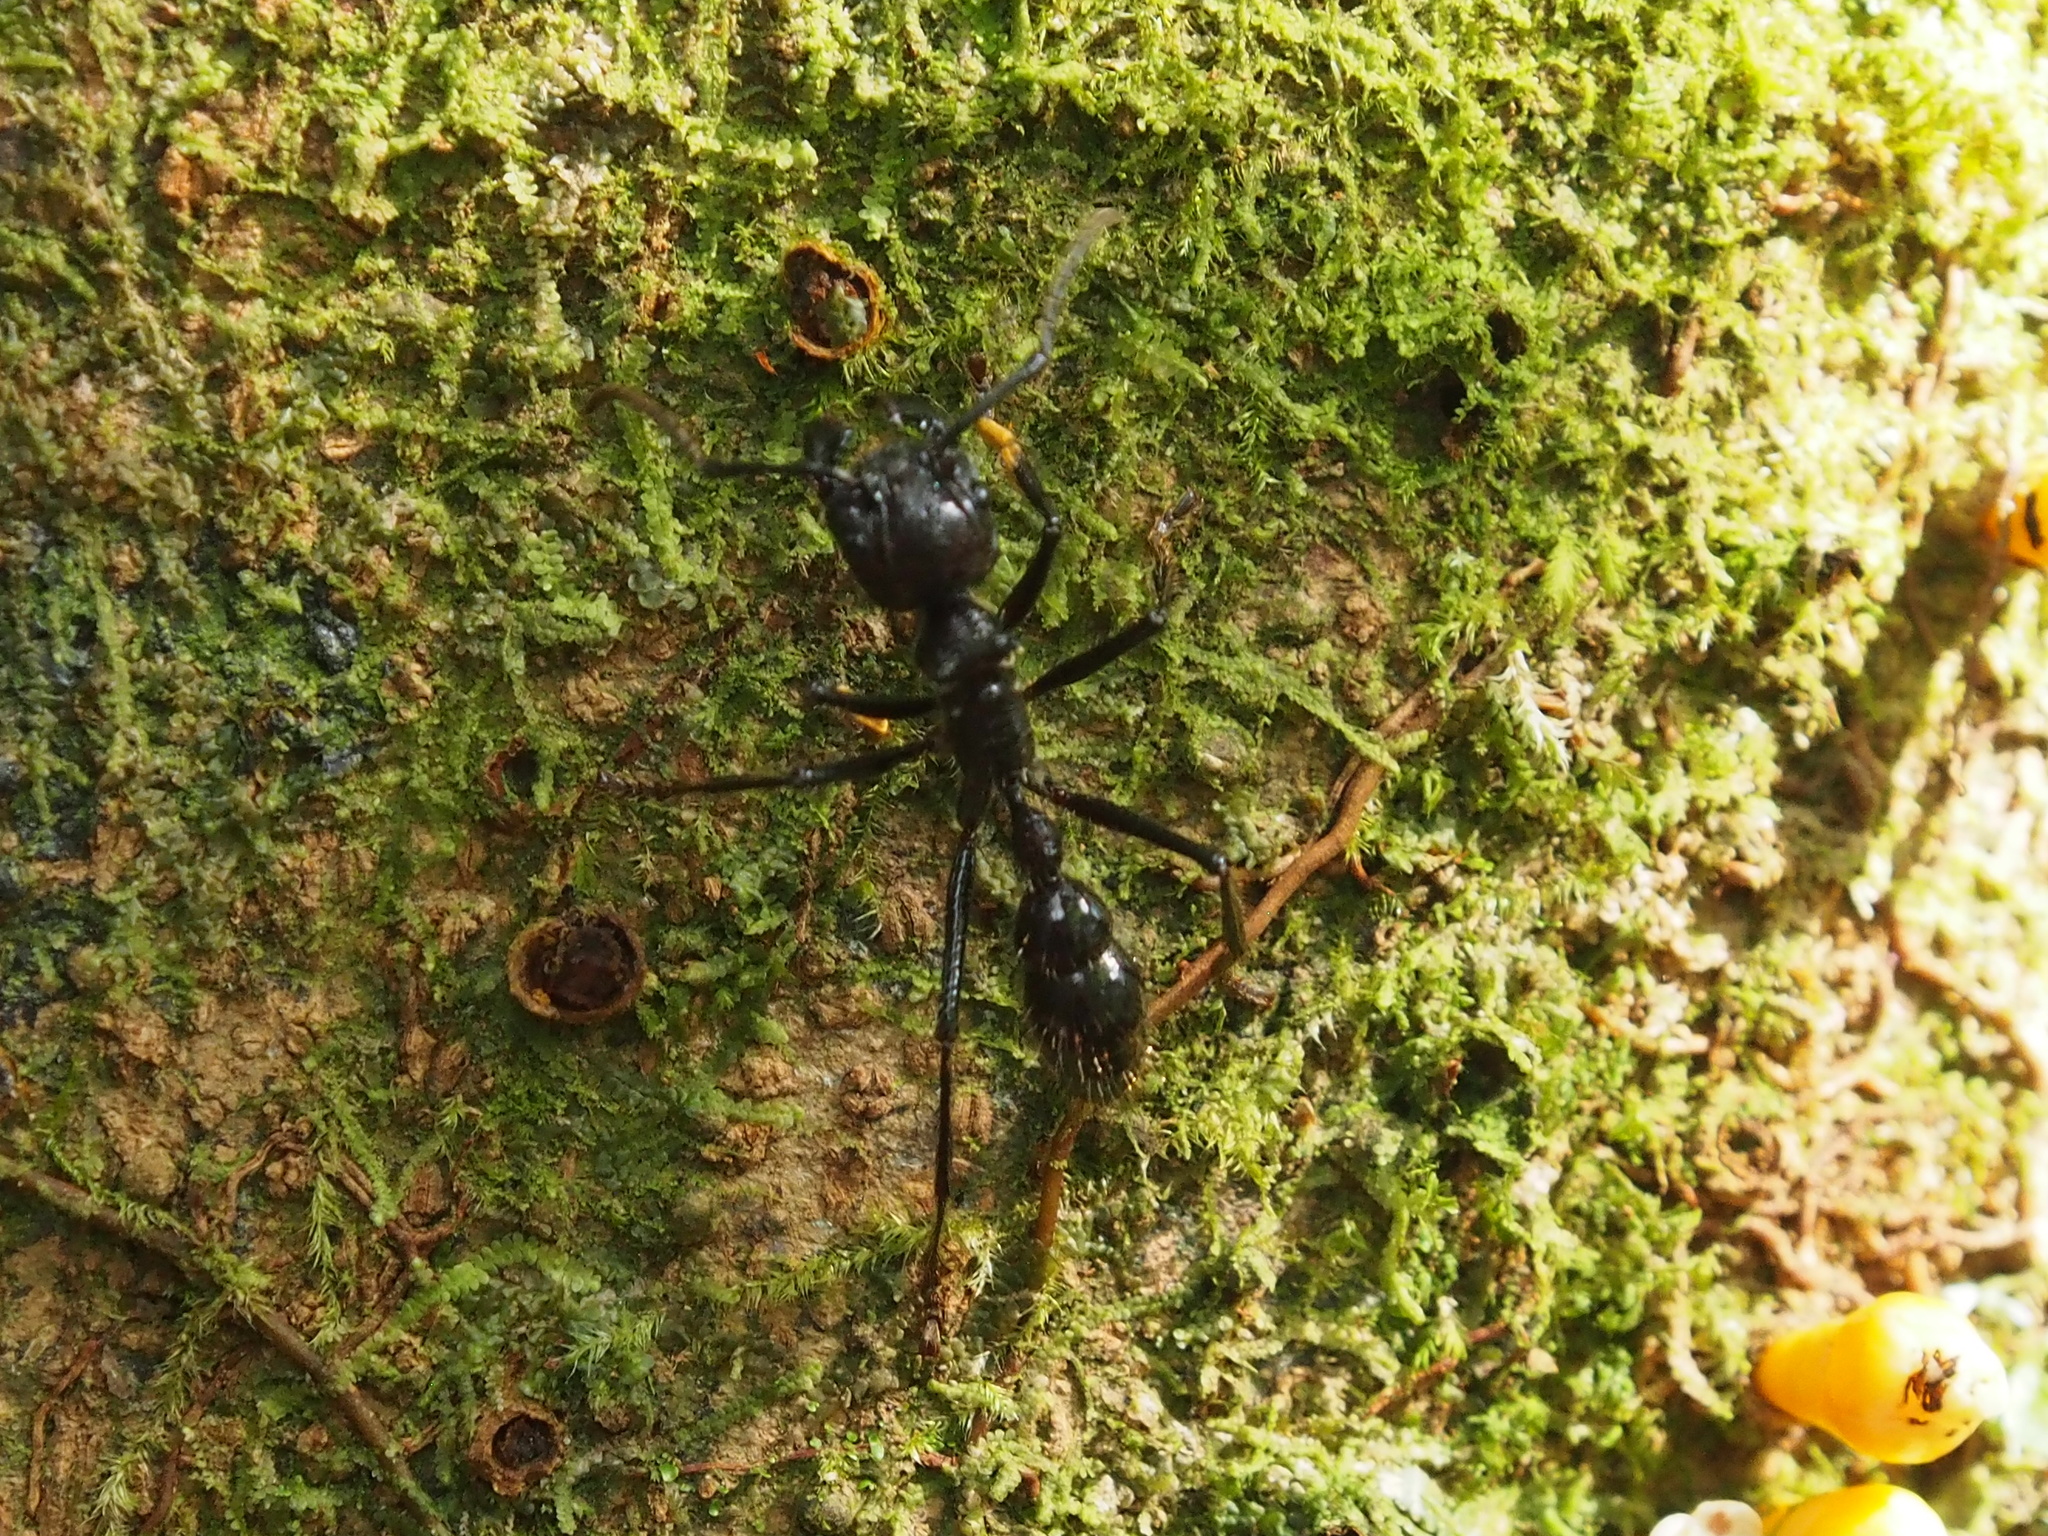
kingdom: Animalia
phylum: Arthropoda
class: Insecta
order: Hymenoptera
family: Formicidae
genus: Paraponera
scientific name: Paraponera clavata
